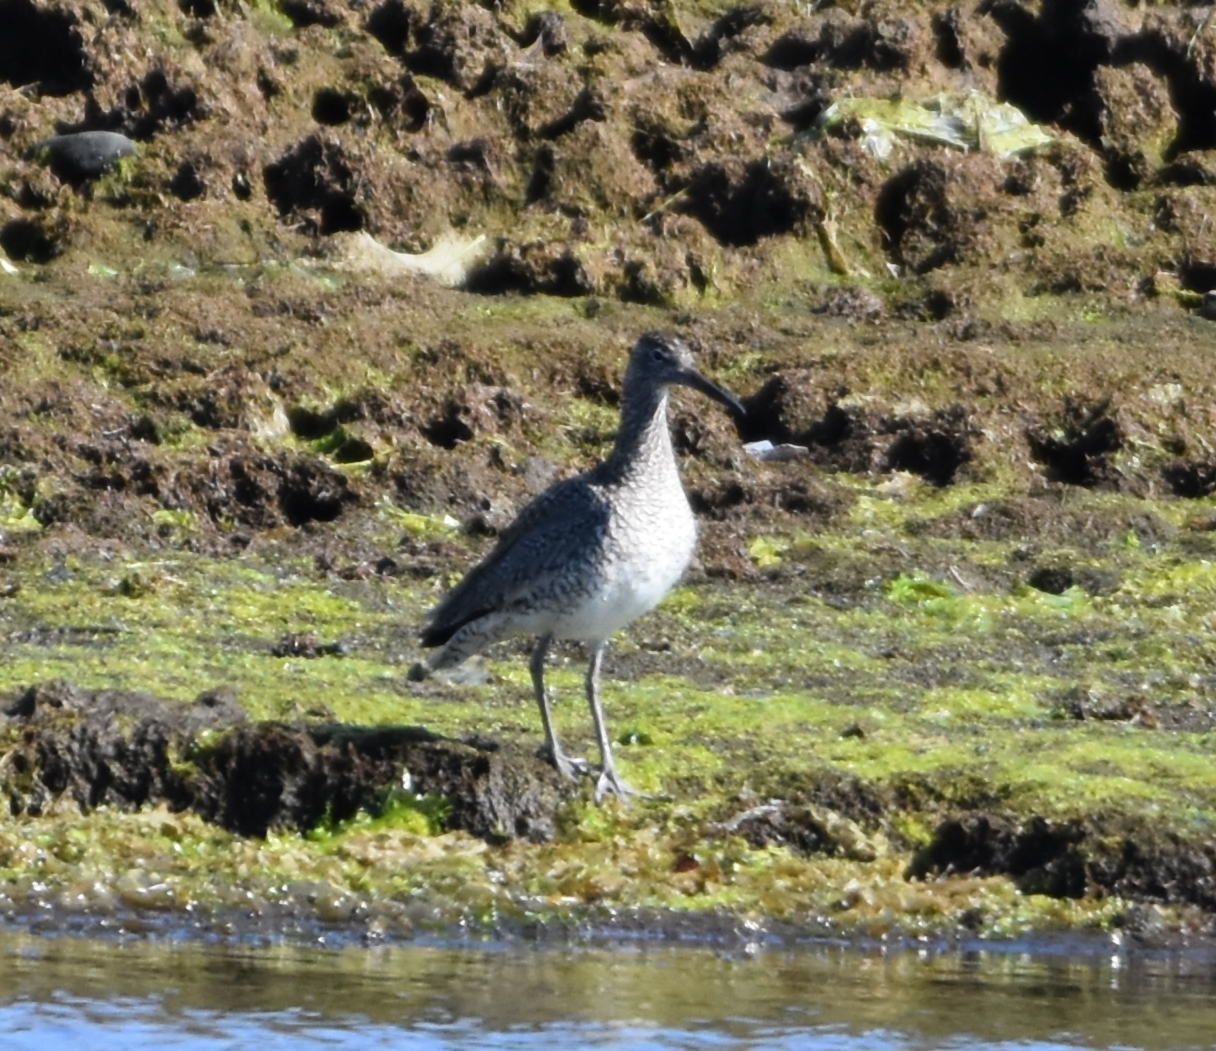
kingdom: Animalia
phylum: Chordata
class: Aves
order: Charadriiformes
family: Scolopacidae
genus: Tringa
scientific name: Tringa semipalmata
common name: Willet
